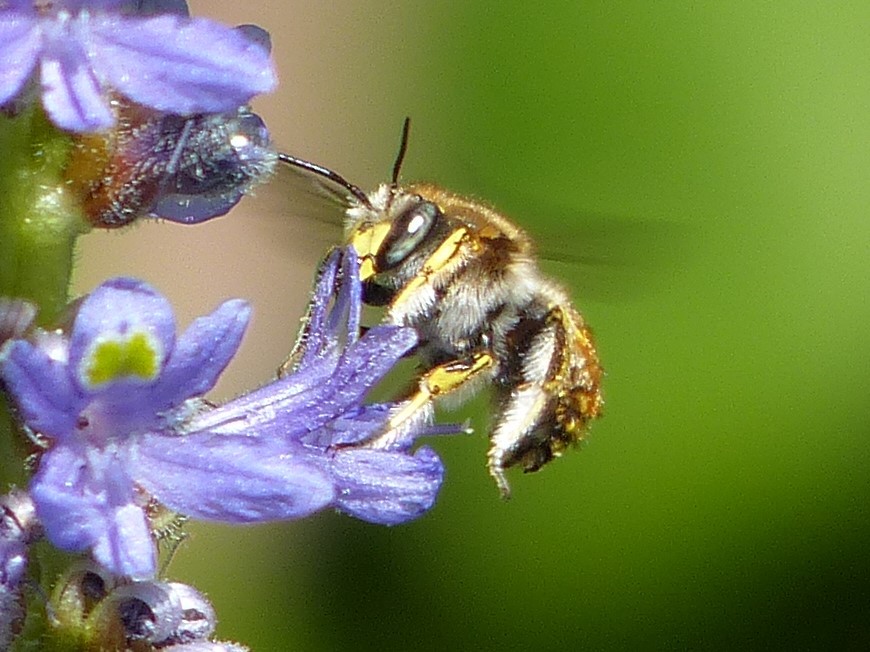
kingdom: Animalia
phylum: Arthropoda
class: Insecta
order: Hymenoptera
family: Megachilidae
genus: Anthidium
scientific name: Anthidium manicatum
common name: Wool carder bee
